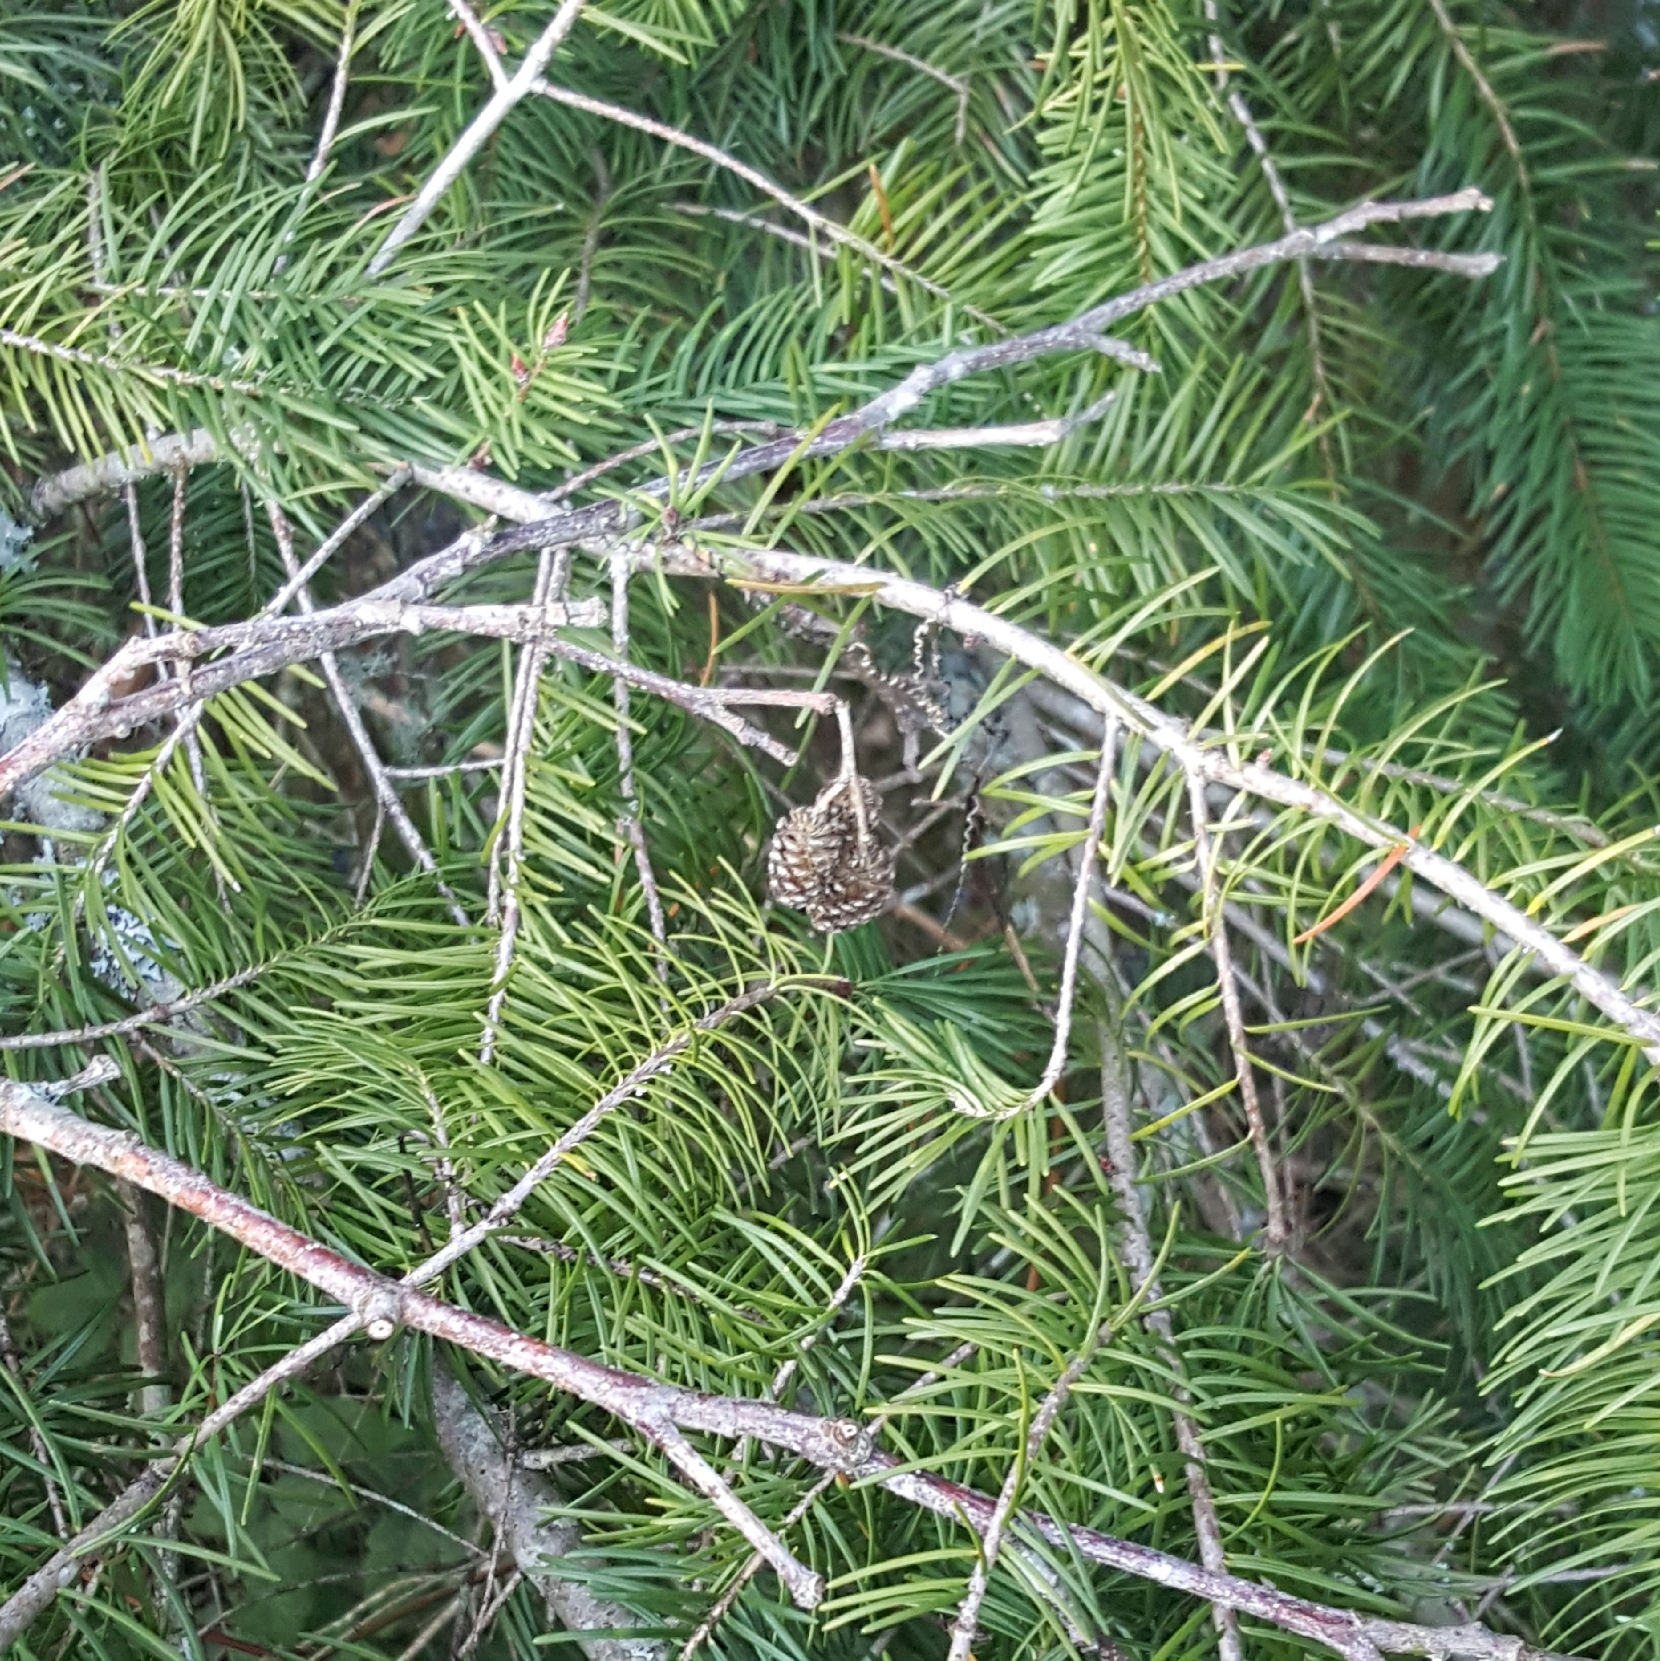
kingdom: Plantae
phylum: Tracheophyta
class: Pinopsida
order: Pinales
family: Pinaceae
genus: Pseudotsuga
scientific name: Pseudotsuga menziesii
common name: Douglas fir
